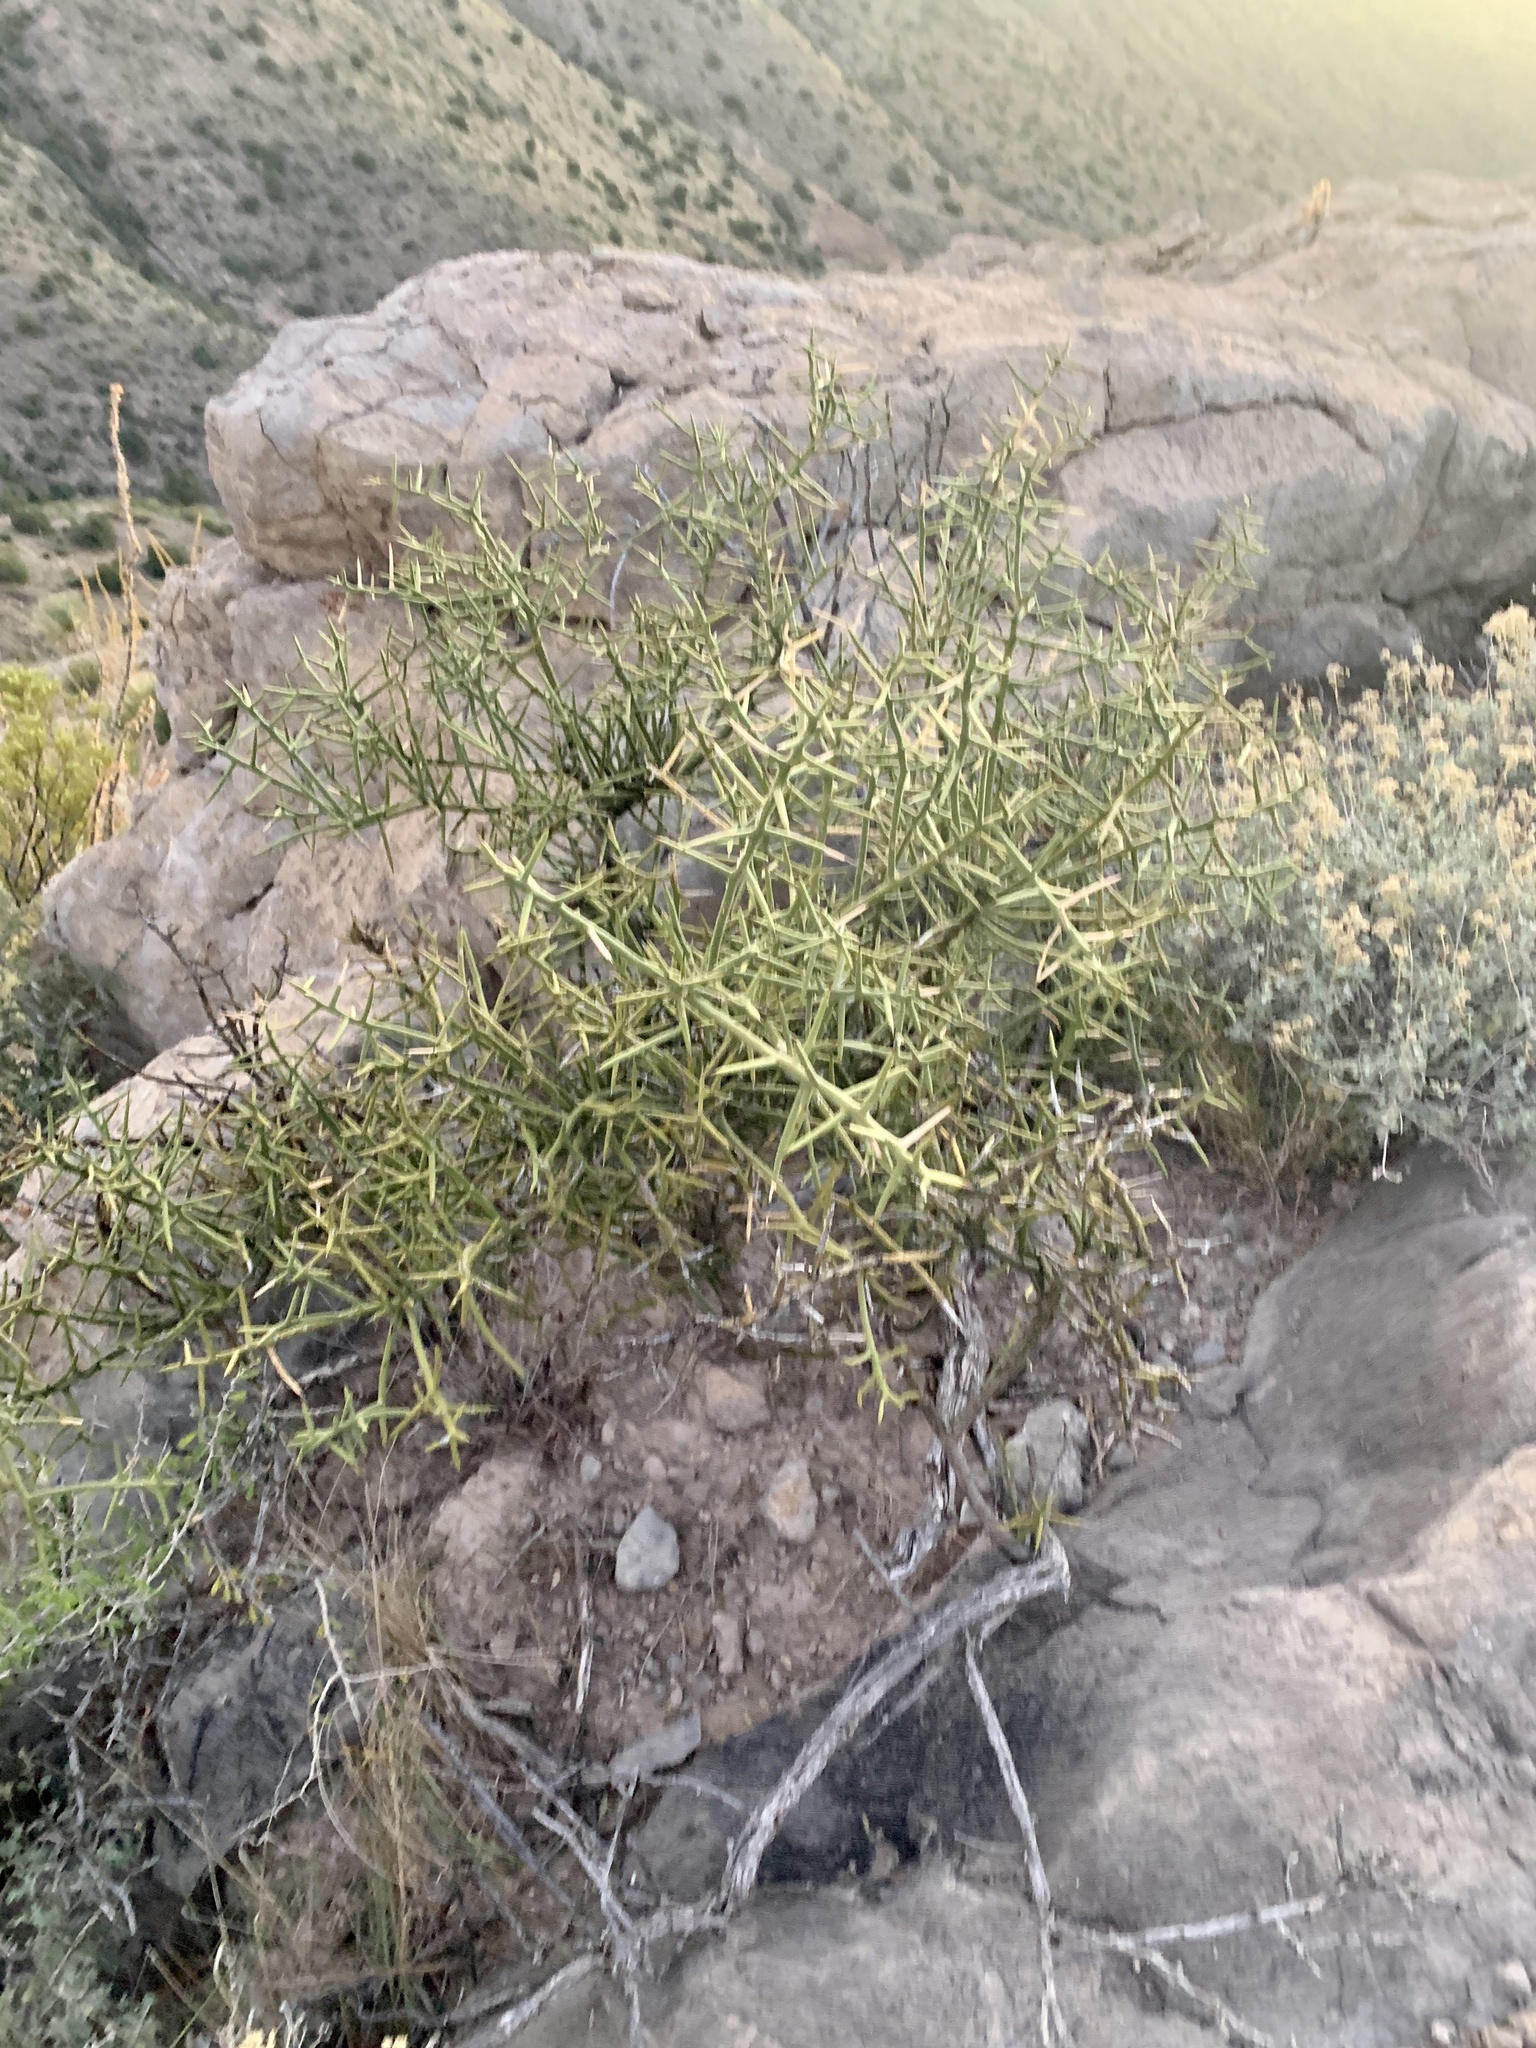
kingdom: Plantae
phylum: Tracheophyta
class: Magnoliopsida
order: Brassicales
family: Koeberliniaceae
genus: Koeberlinia
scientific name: Koeberlinia spinosa
